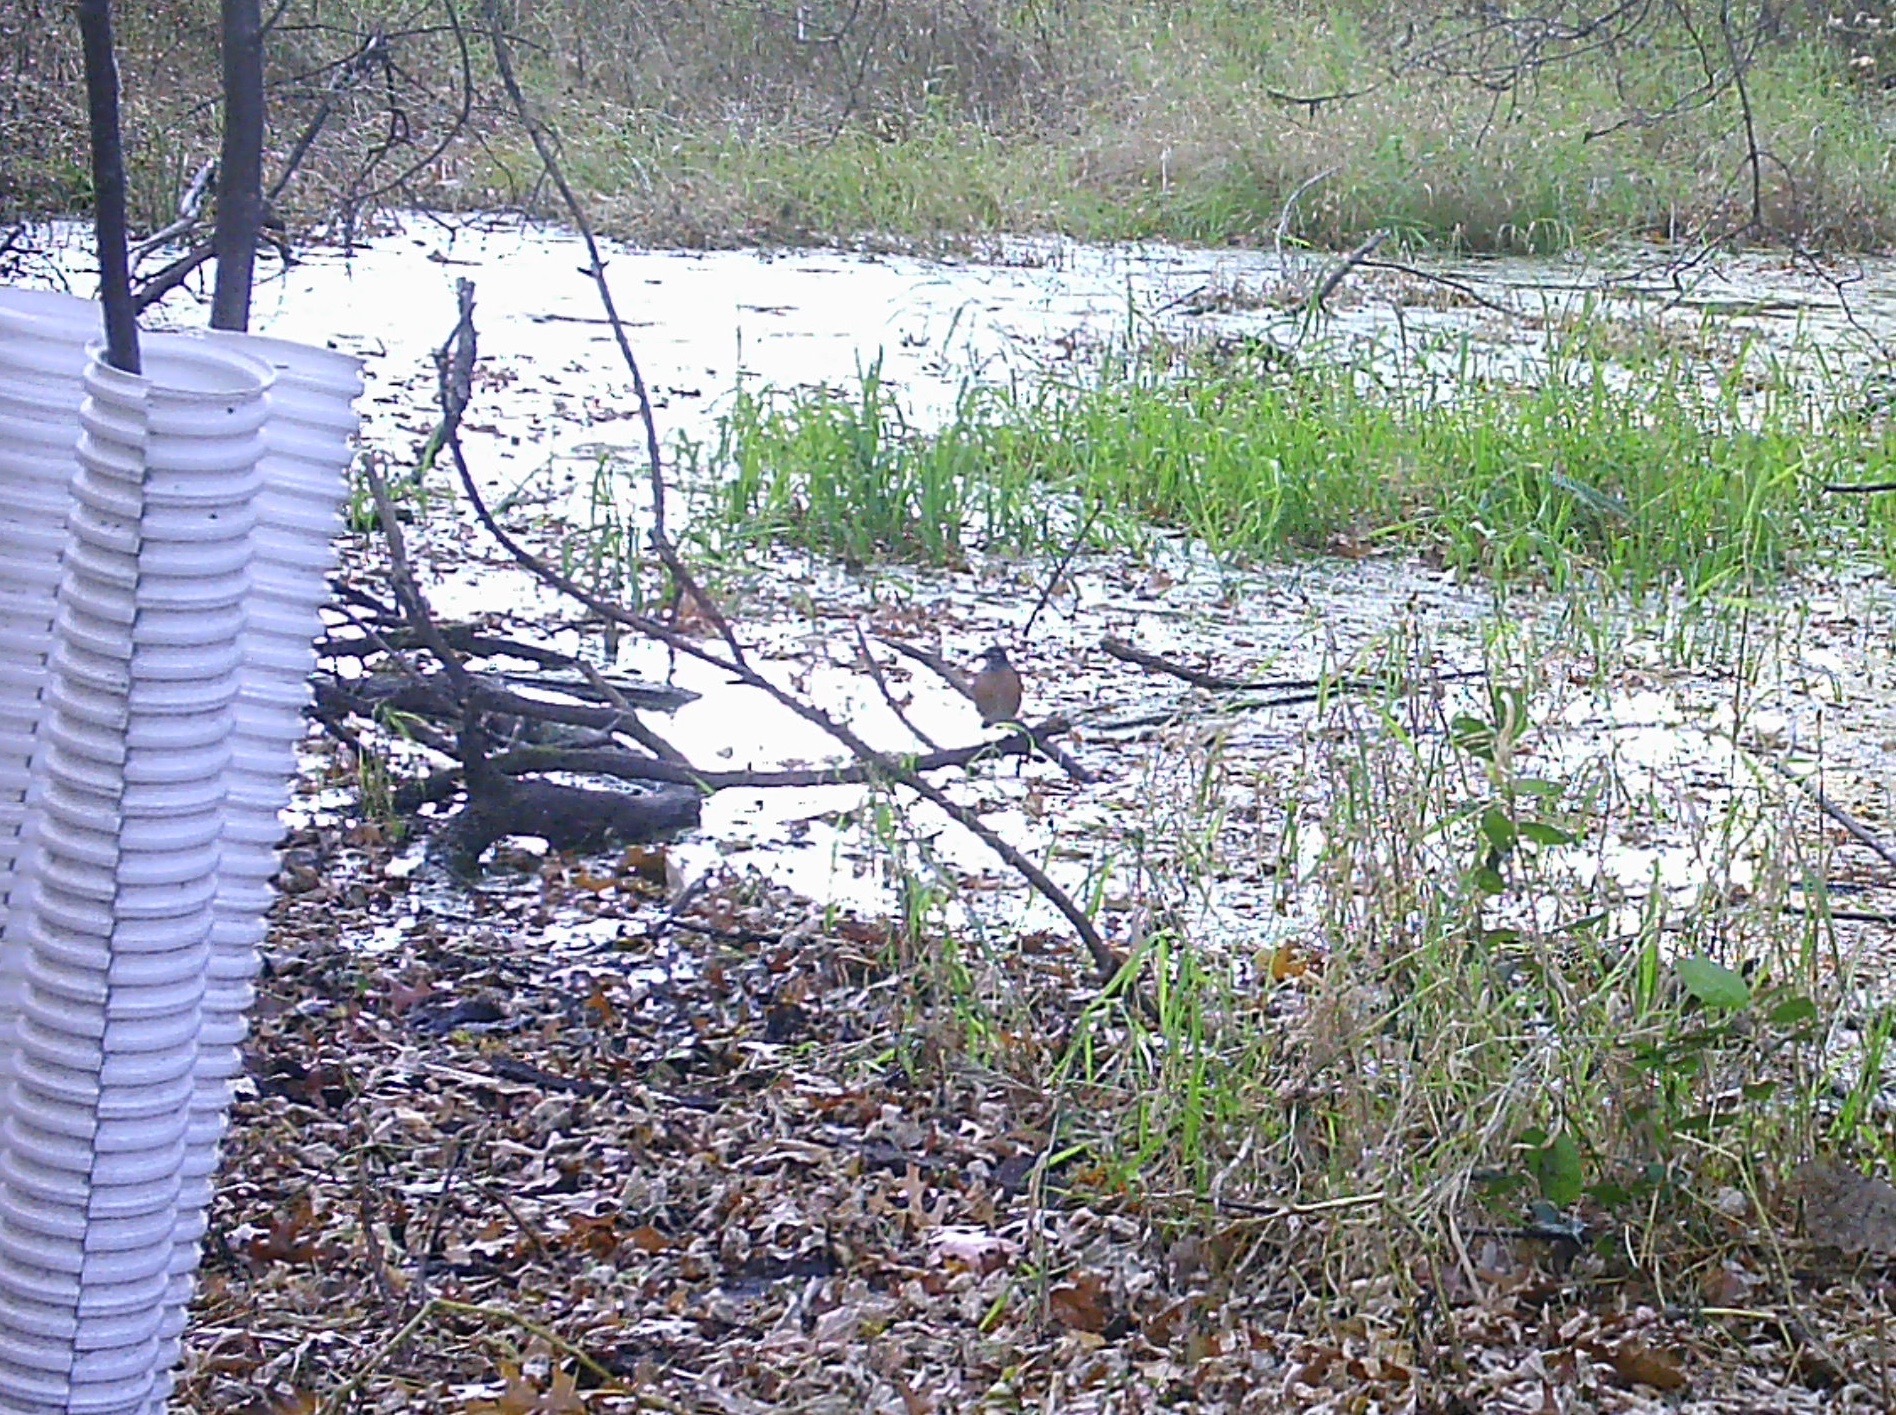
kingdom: Animalia
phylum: Chordata
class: Aves
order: Passeriformes
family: Turdidae
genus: Turdus
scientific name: Turdus migratorius
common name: American robin
